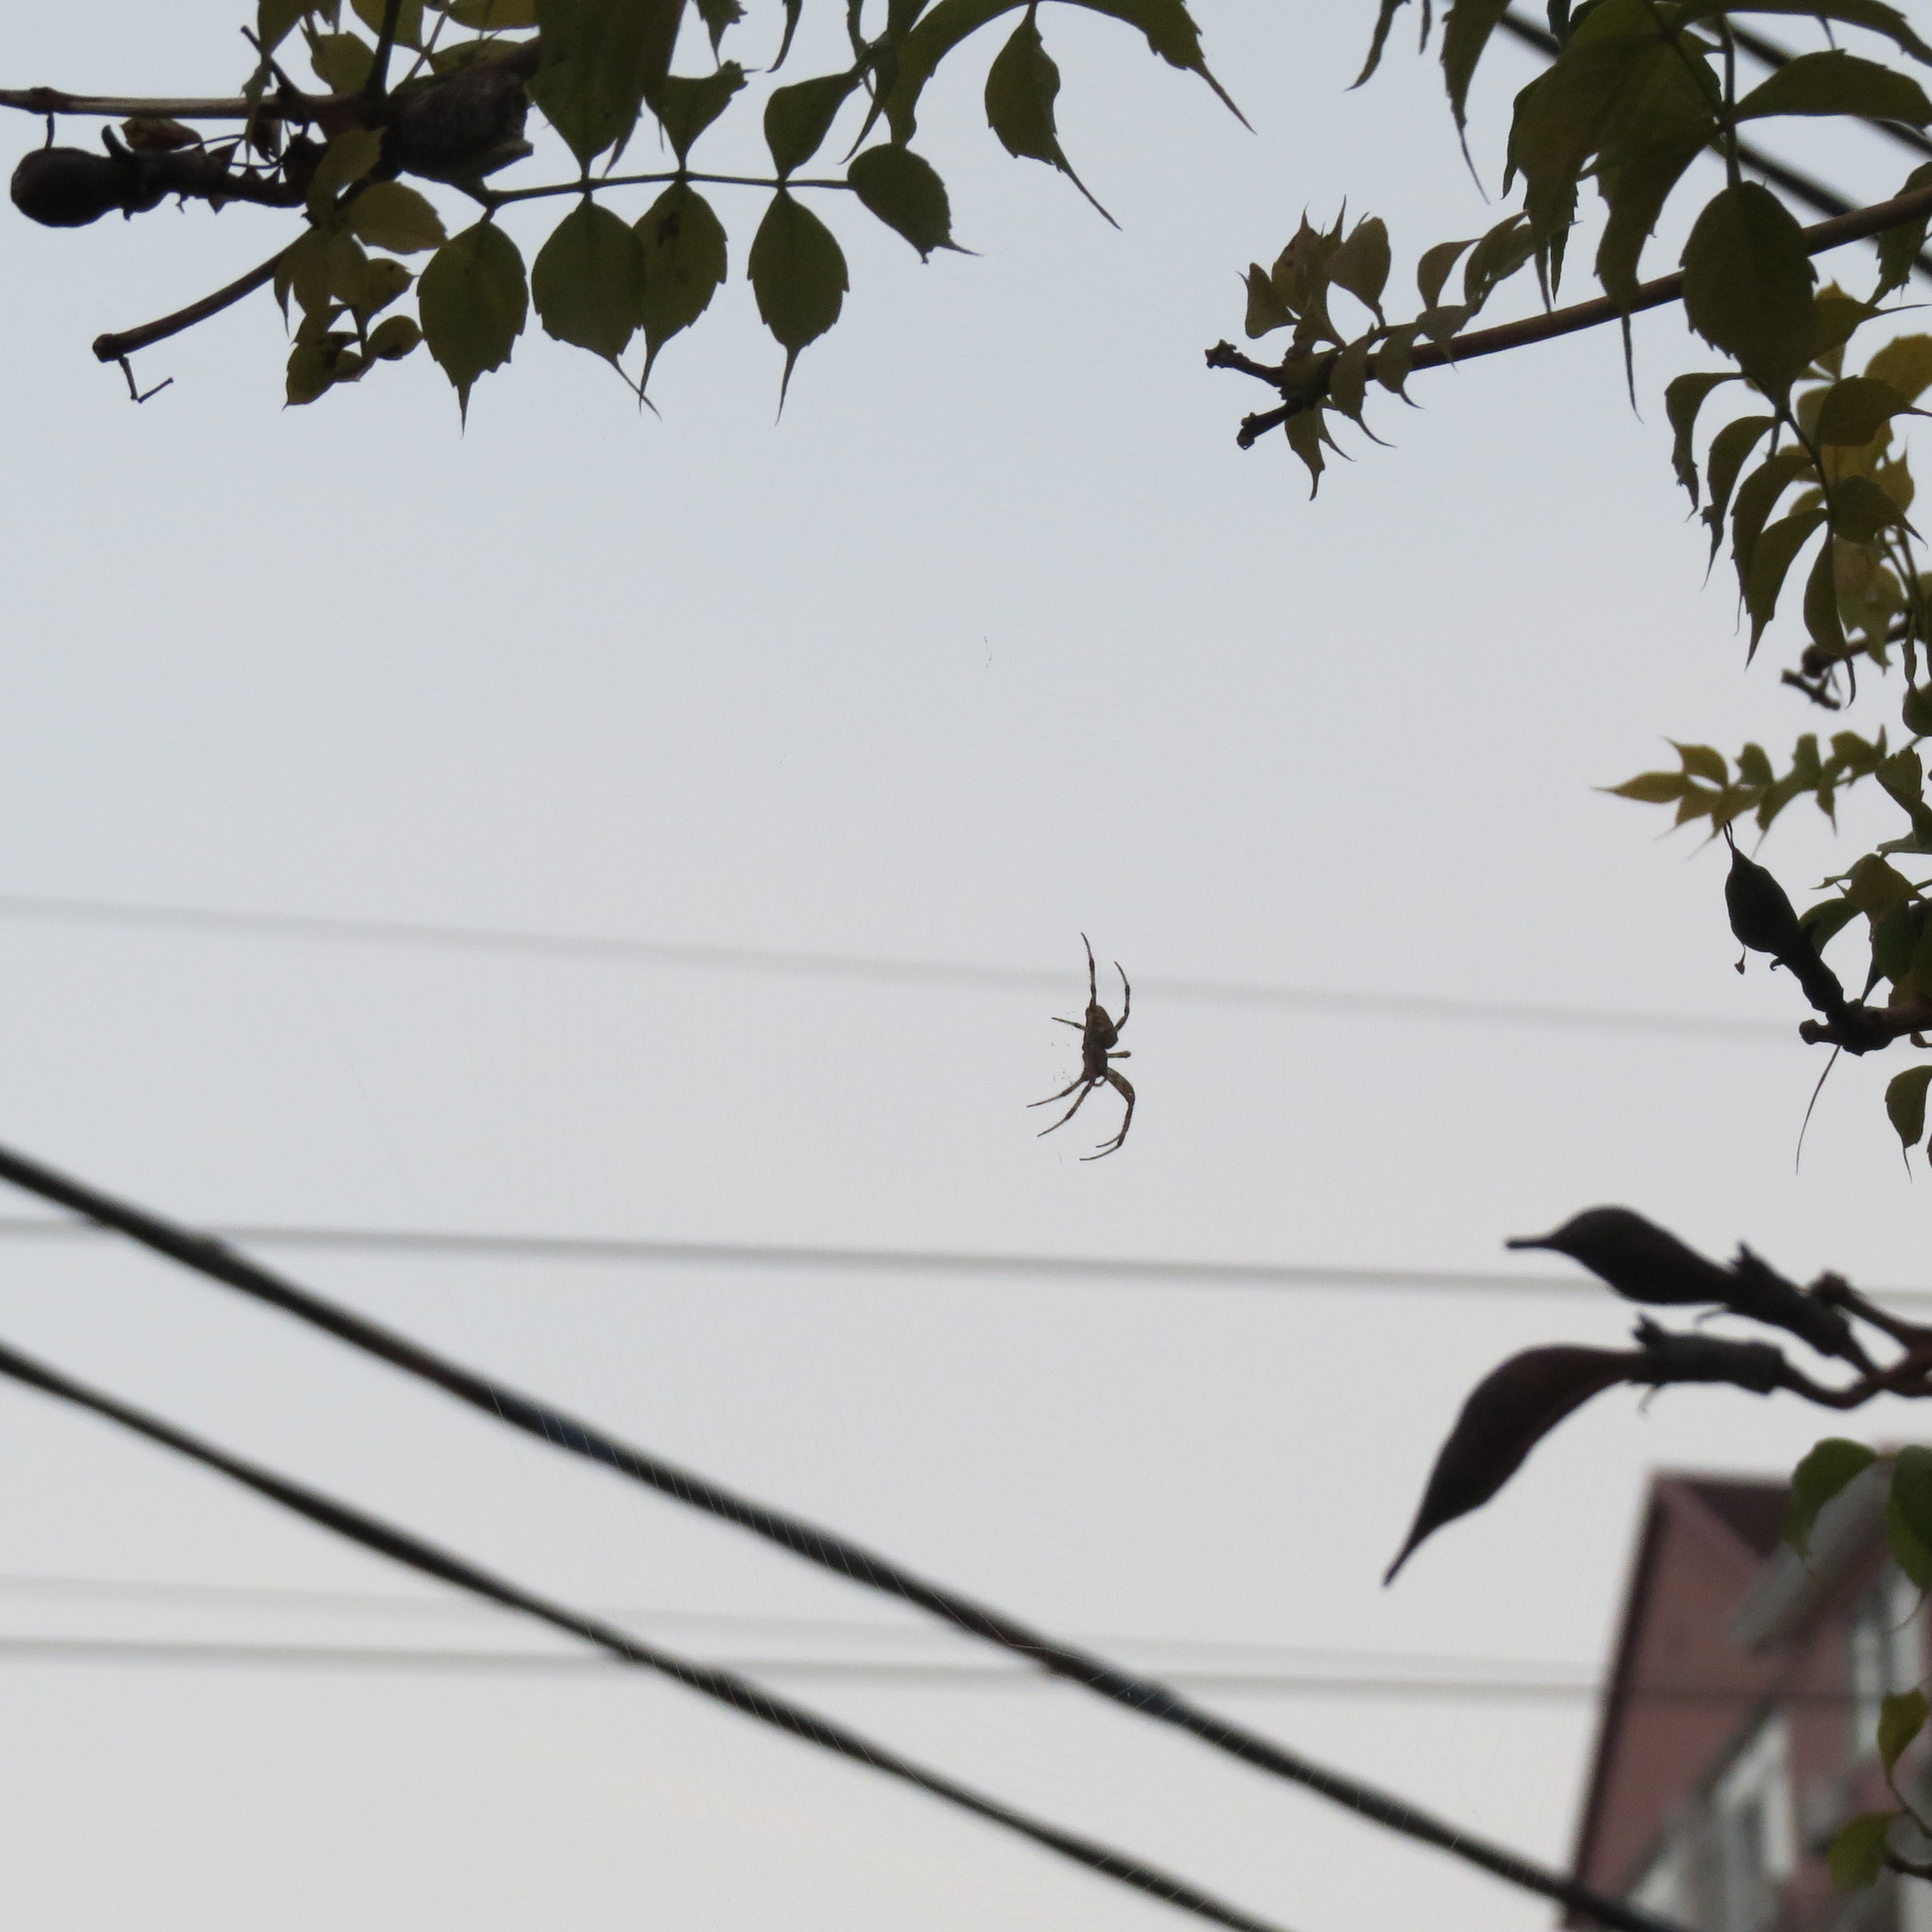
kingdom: Animalia
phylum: Arthropoda
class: Arachnida
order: Araneae
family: Araneidae
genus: Araneus
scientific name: Araneus diadematus
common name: Cross orbweaver
